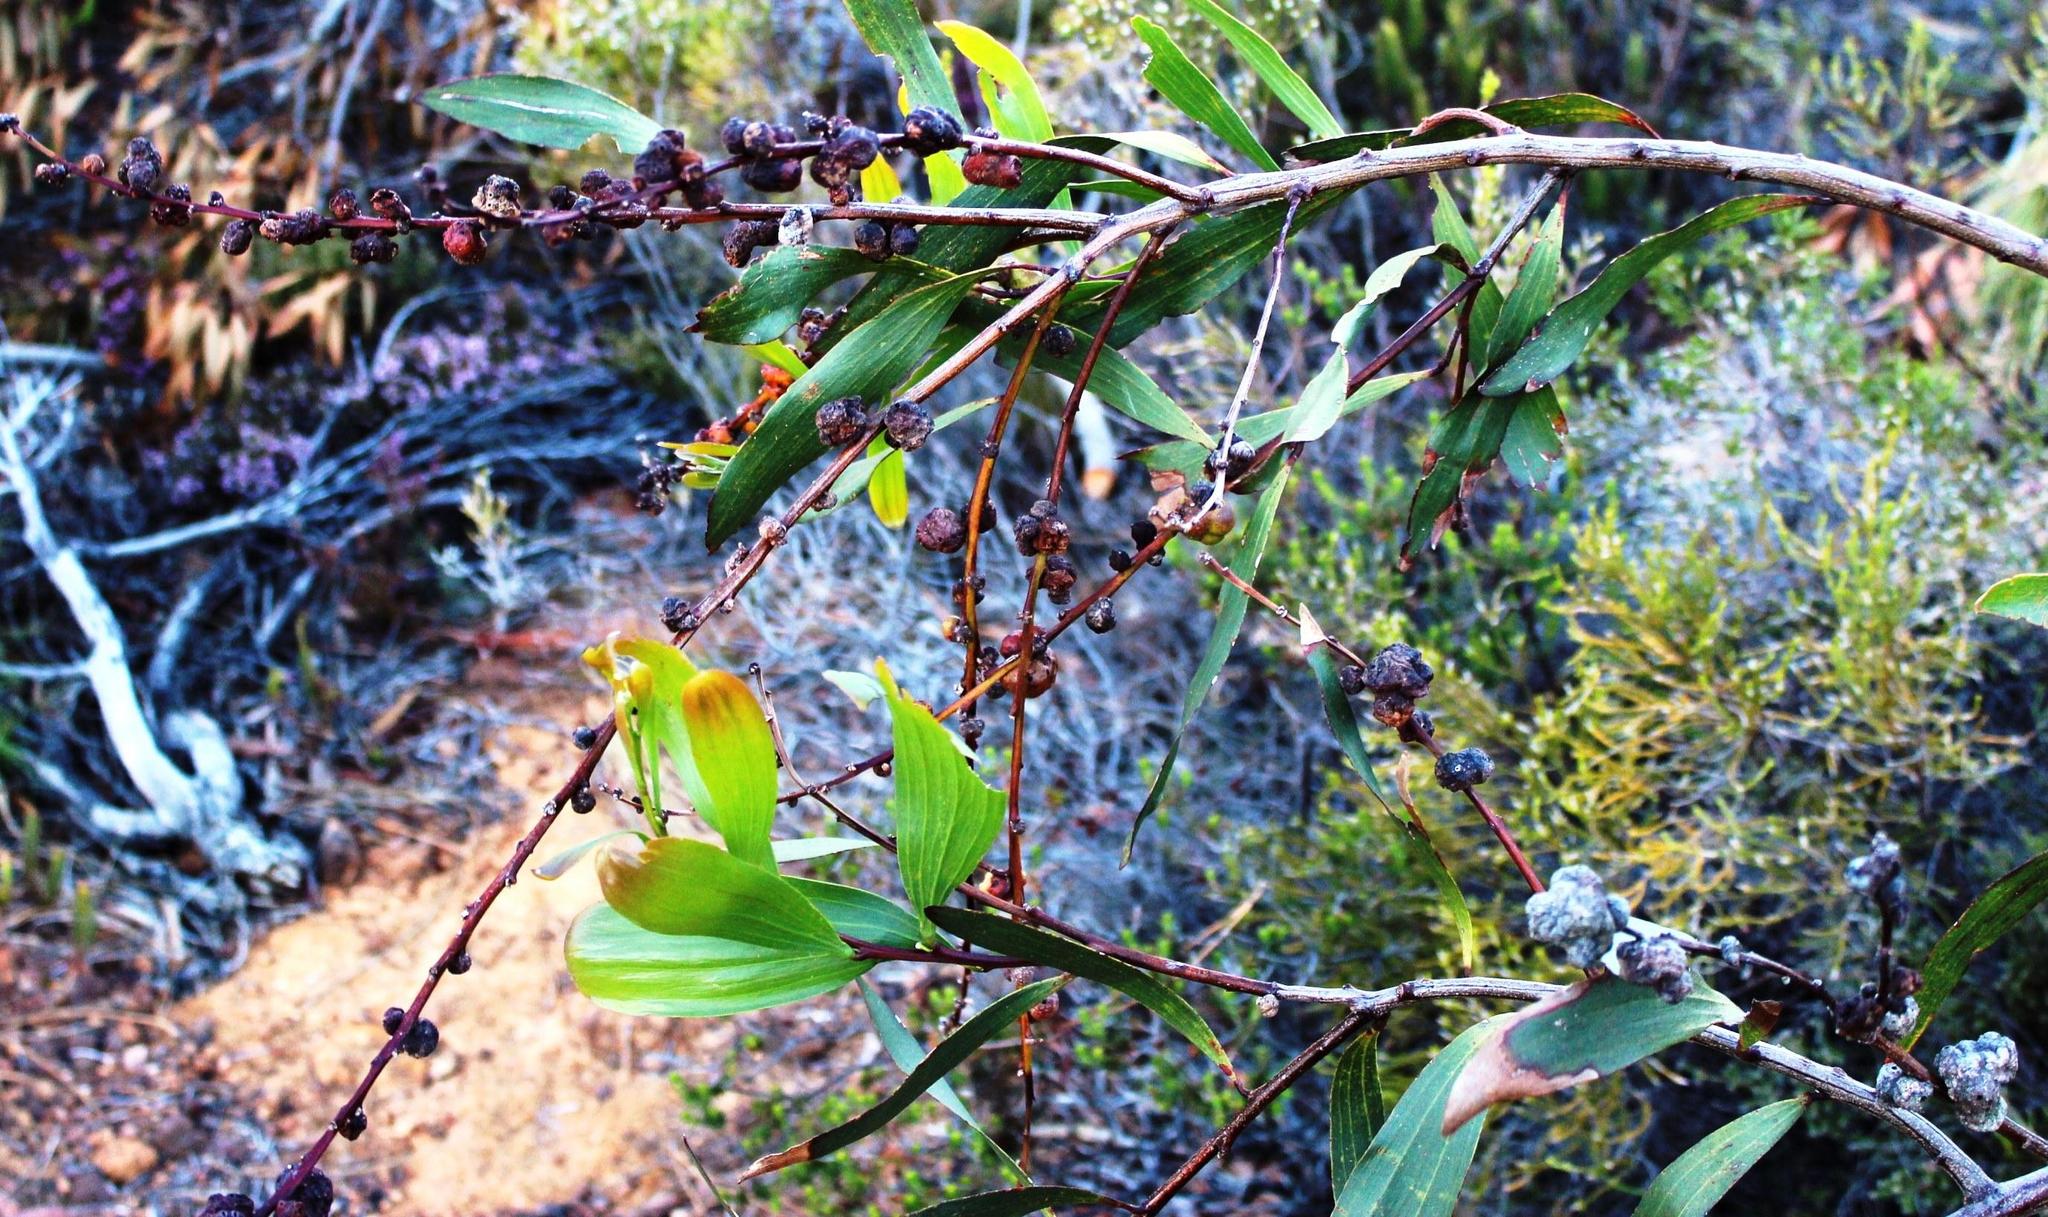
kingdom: Animalia
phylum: Arthropoda
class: Insecta
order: Hymenoptera
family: Pteromalidae
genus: Trichilogaster
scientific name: Trichilogaster acaciaelongifoliae
